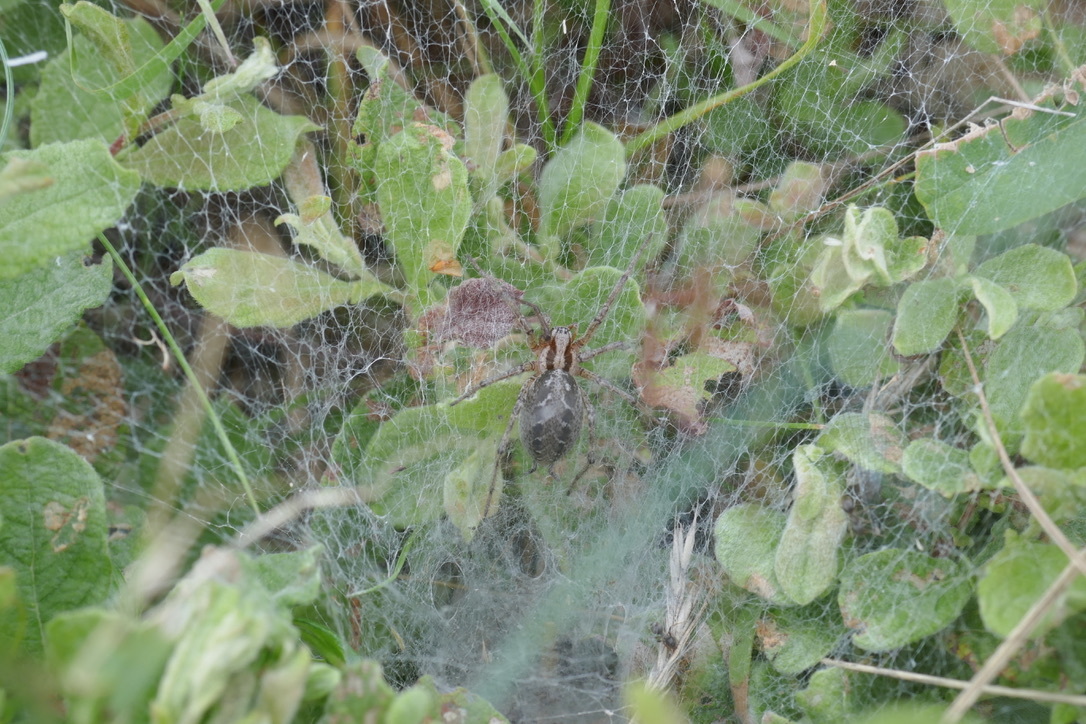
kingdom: Animalia
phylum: Arthropoda
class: Arachnida
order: Araneae
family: Agelenidae
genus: Agelena
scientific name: Agelena labyrinthica
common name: Labyrinth spider
